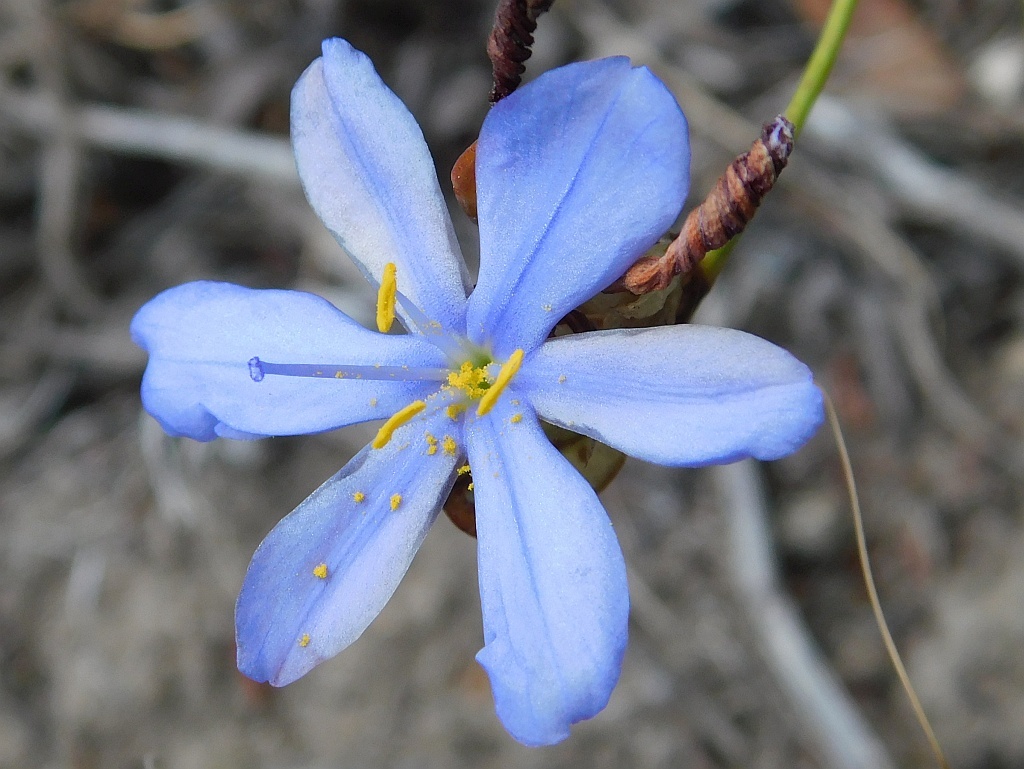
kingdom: Plantae
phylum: Tracheophyta
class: Liliopsida
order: Asparagales
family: Iridaceae
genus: Aristea
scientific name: Aristea dichotoma
